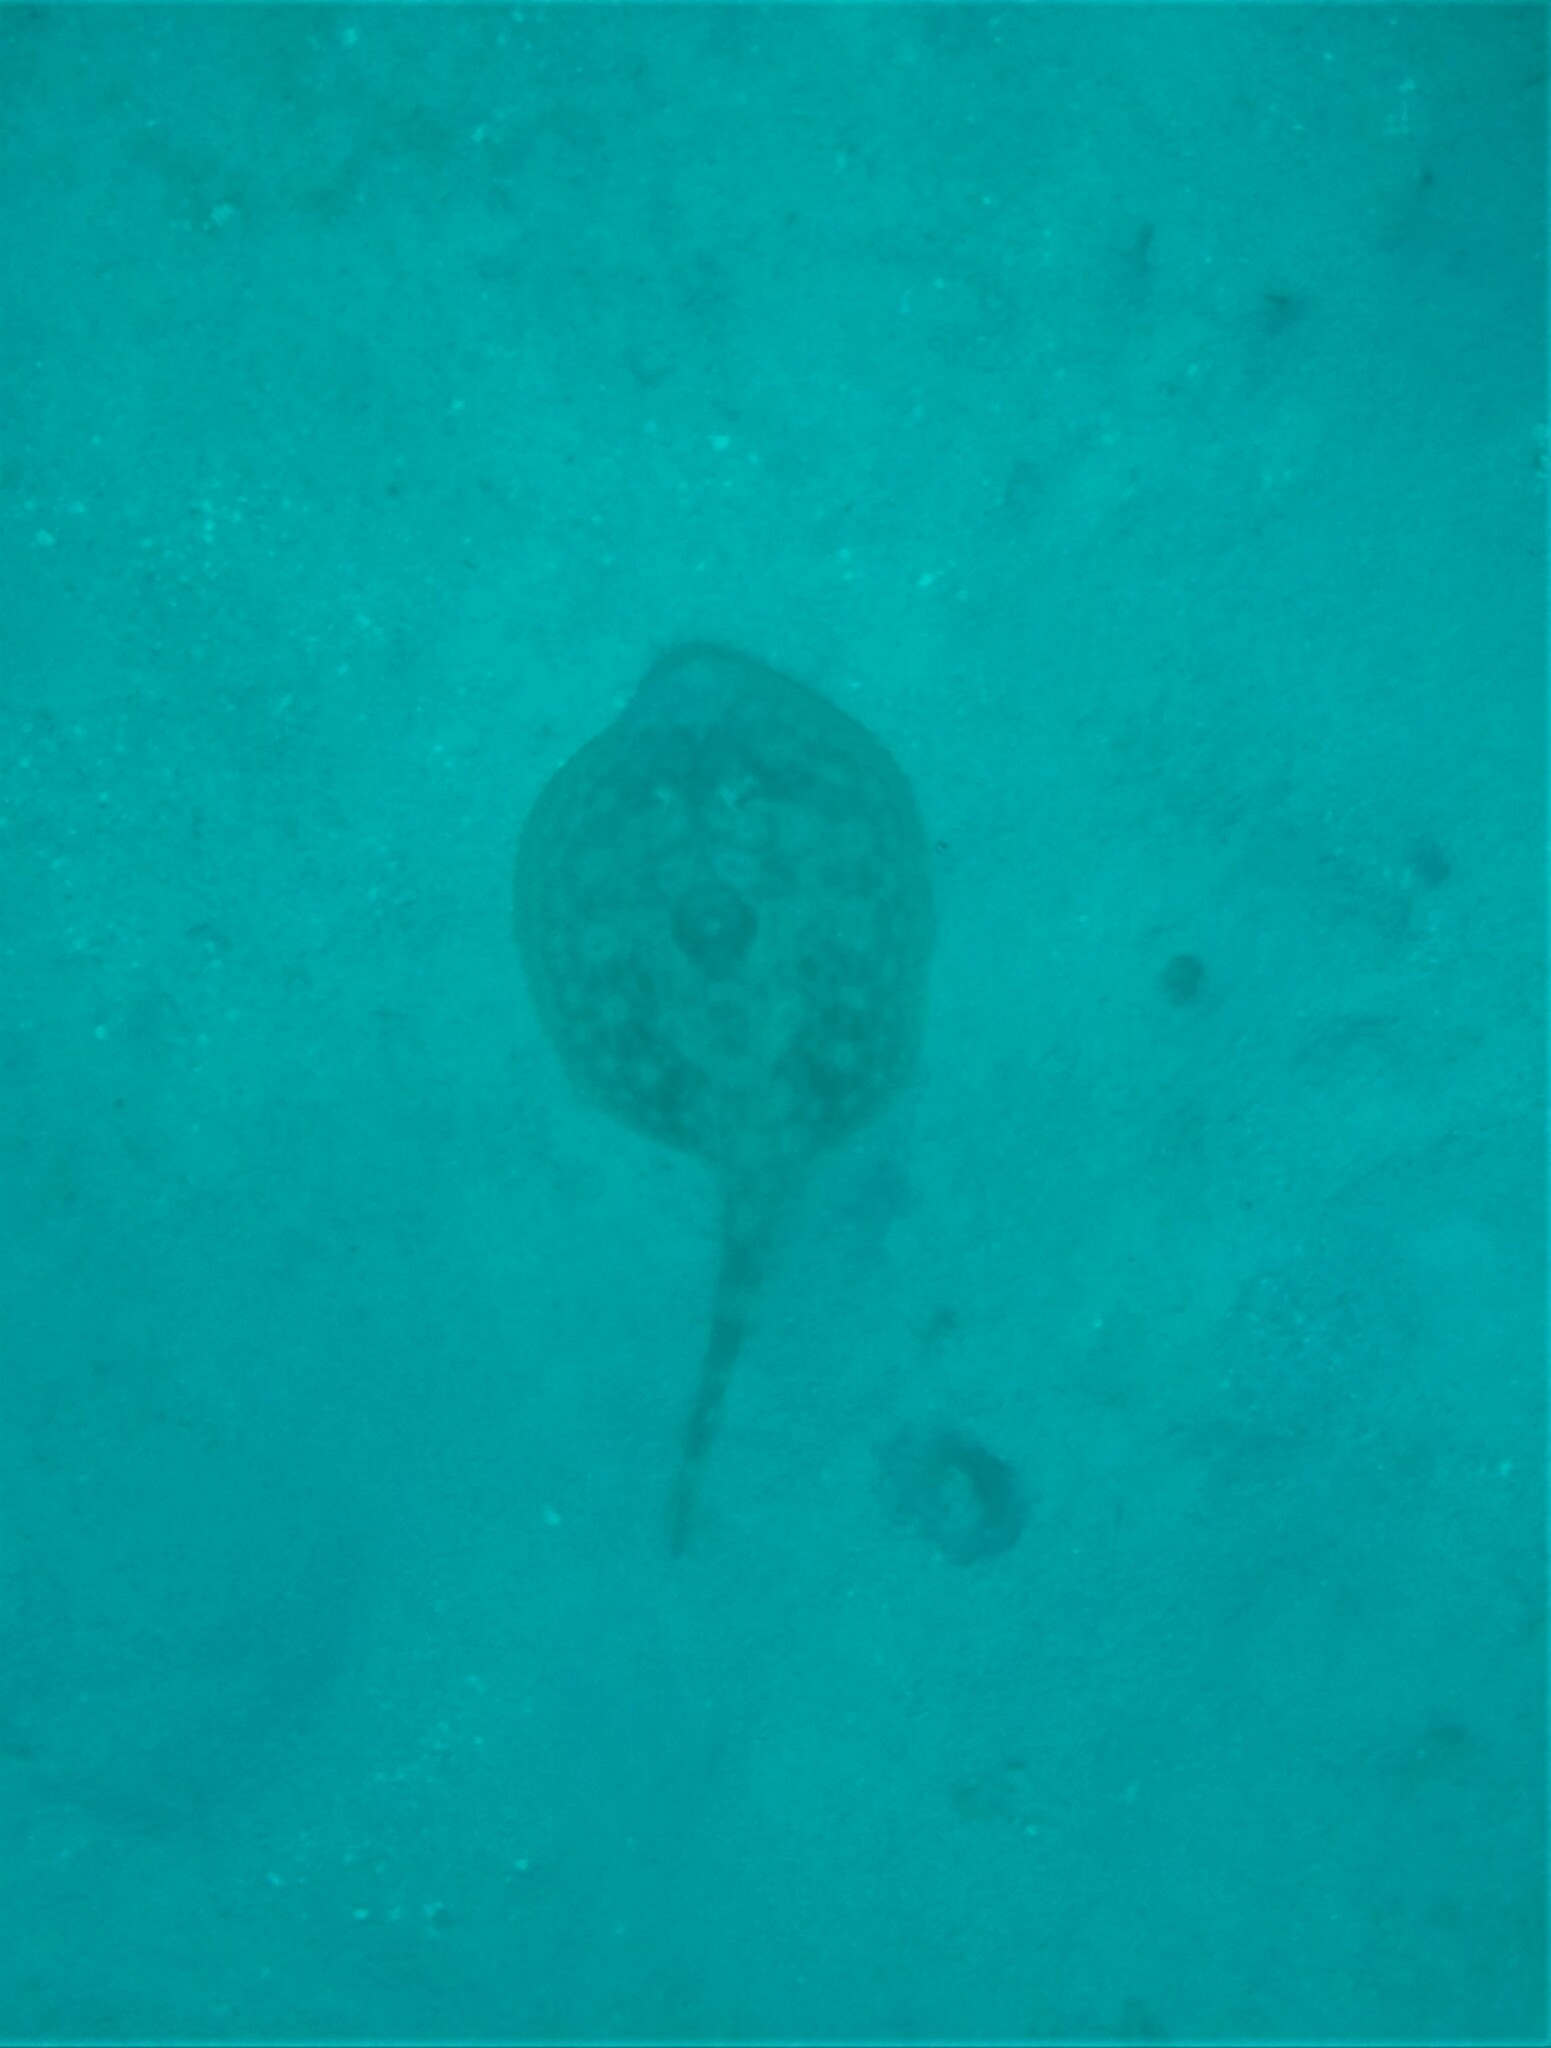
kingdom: Animalia
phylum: Chordata
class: Elasmobranchii
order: Myliobatiformes
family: Urotrygonidae
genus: Urobatis
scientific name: Urobatis jamaicensis
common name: Yellow stingray
